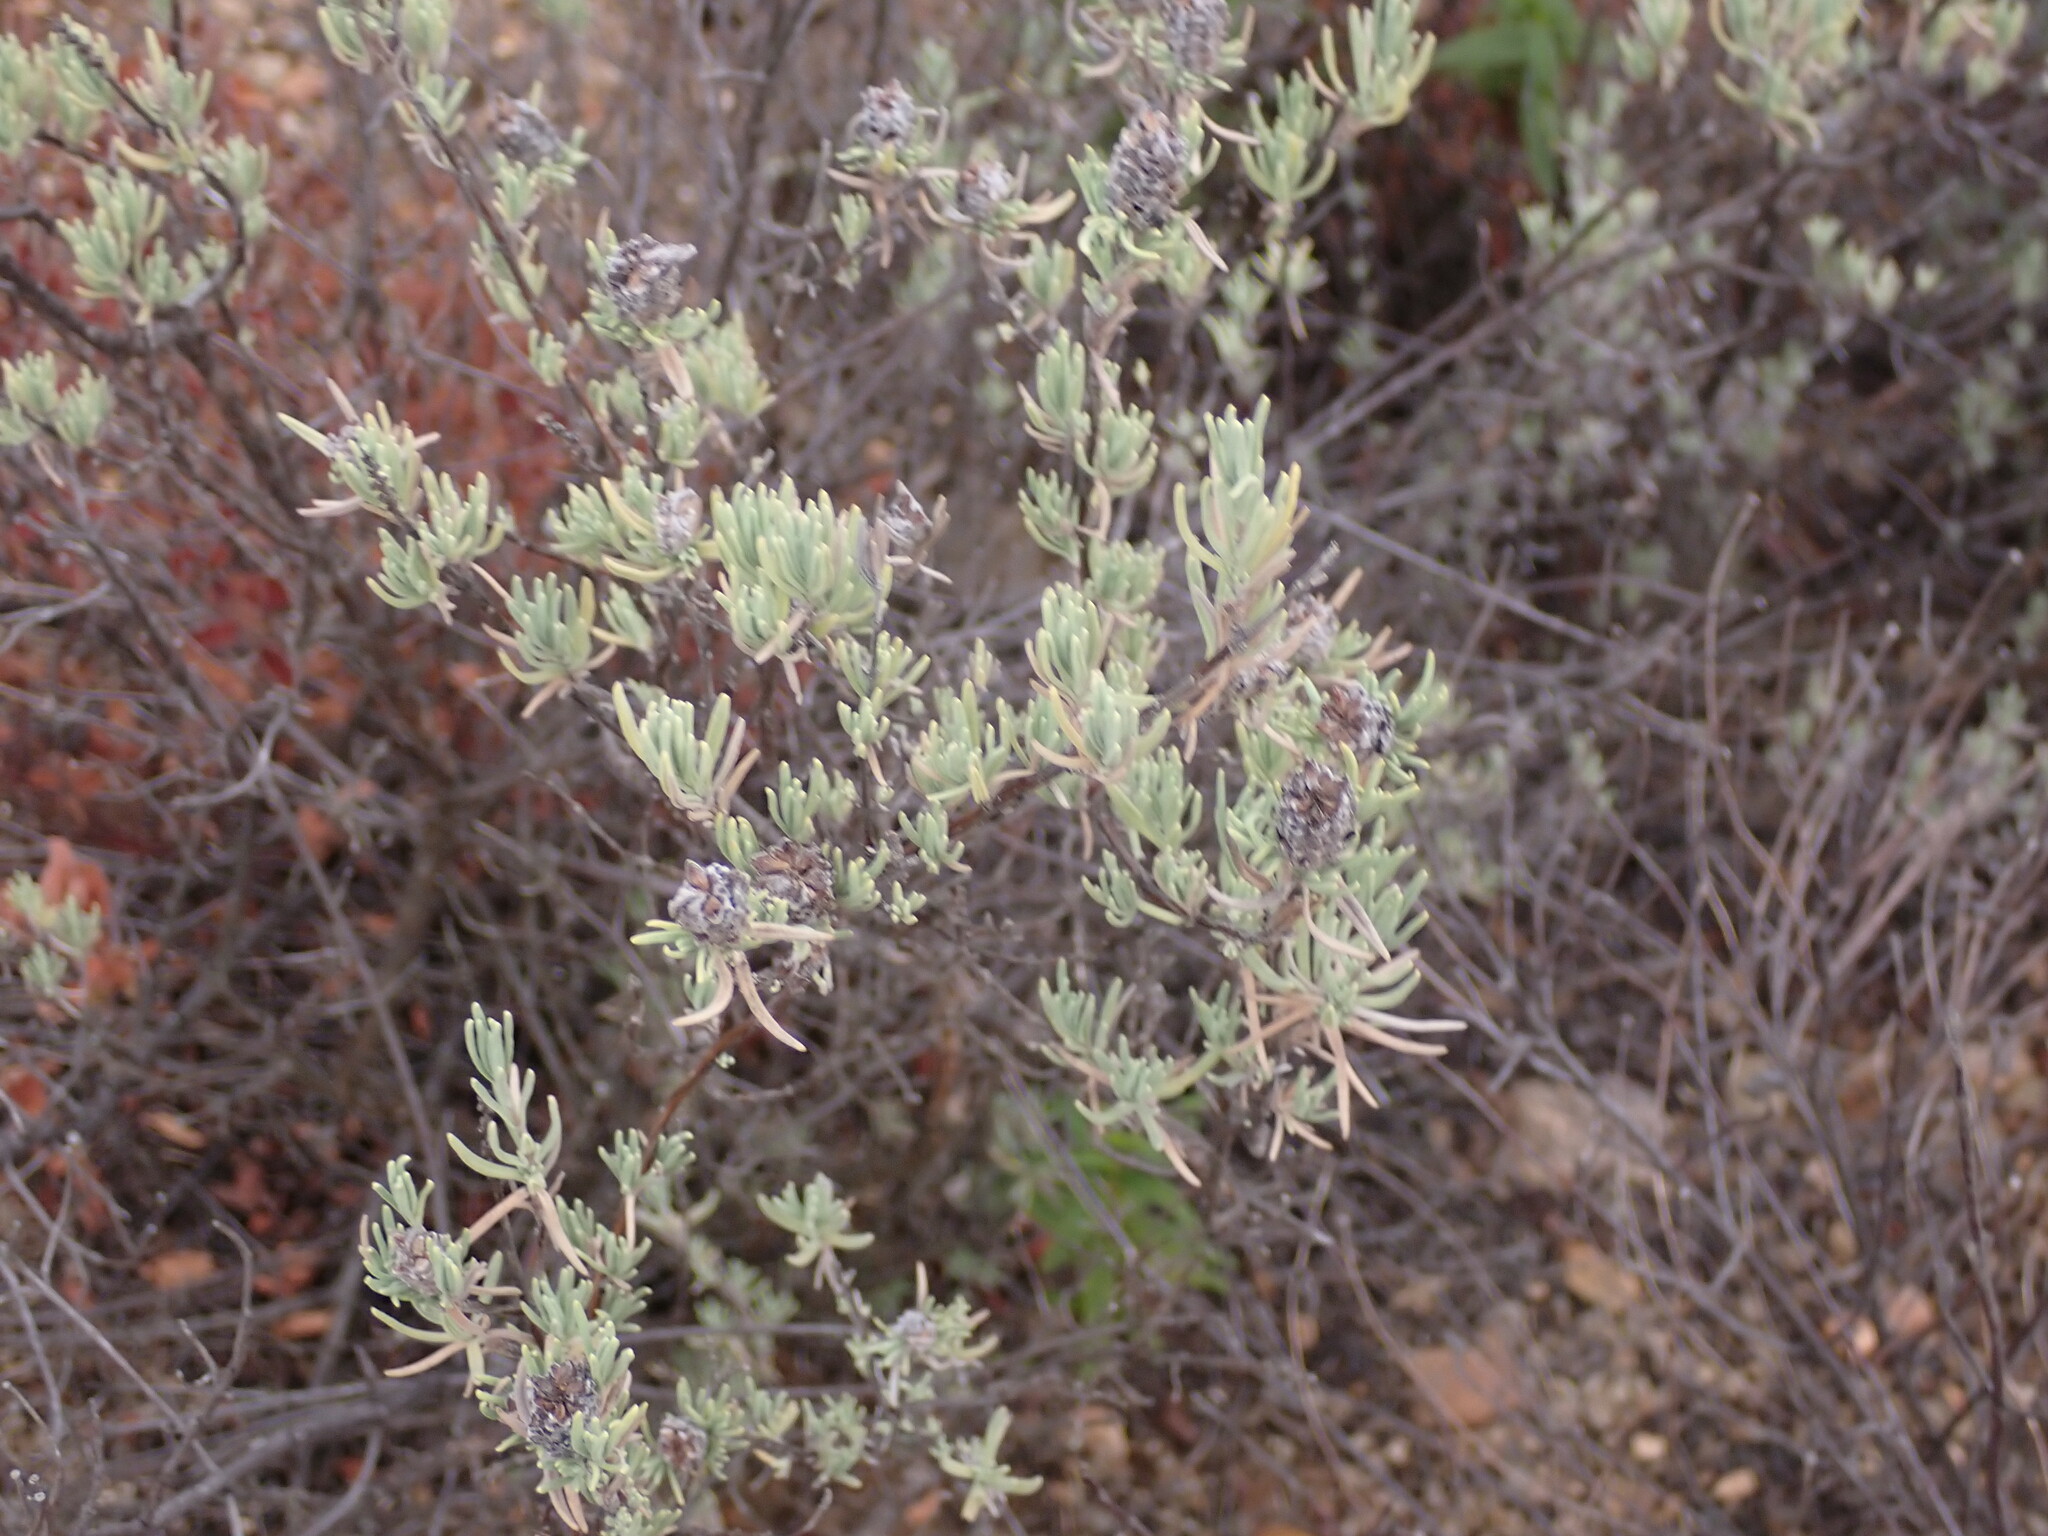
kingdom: Plantae
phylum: Tracheophyta
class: Magnoliopsida
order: Lamiales
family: Lamiaceae
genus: Lavandula
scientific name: Lavandula stoechas
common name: French lavender
